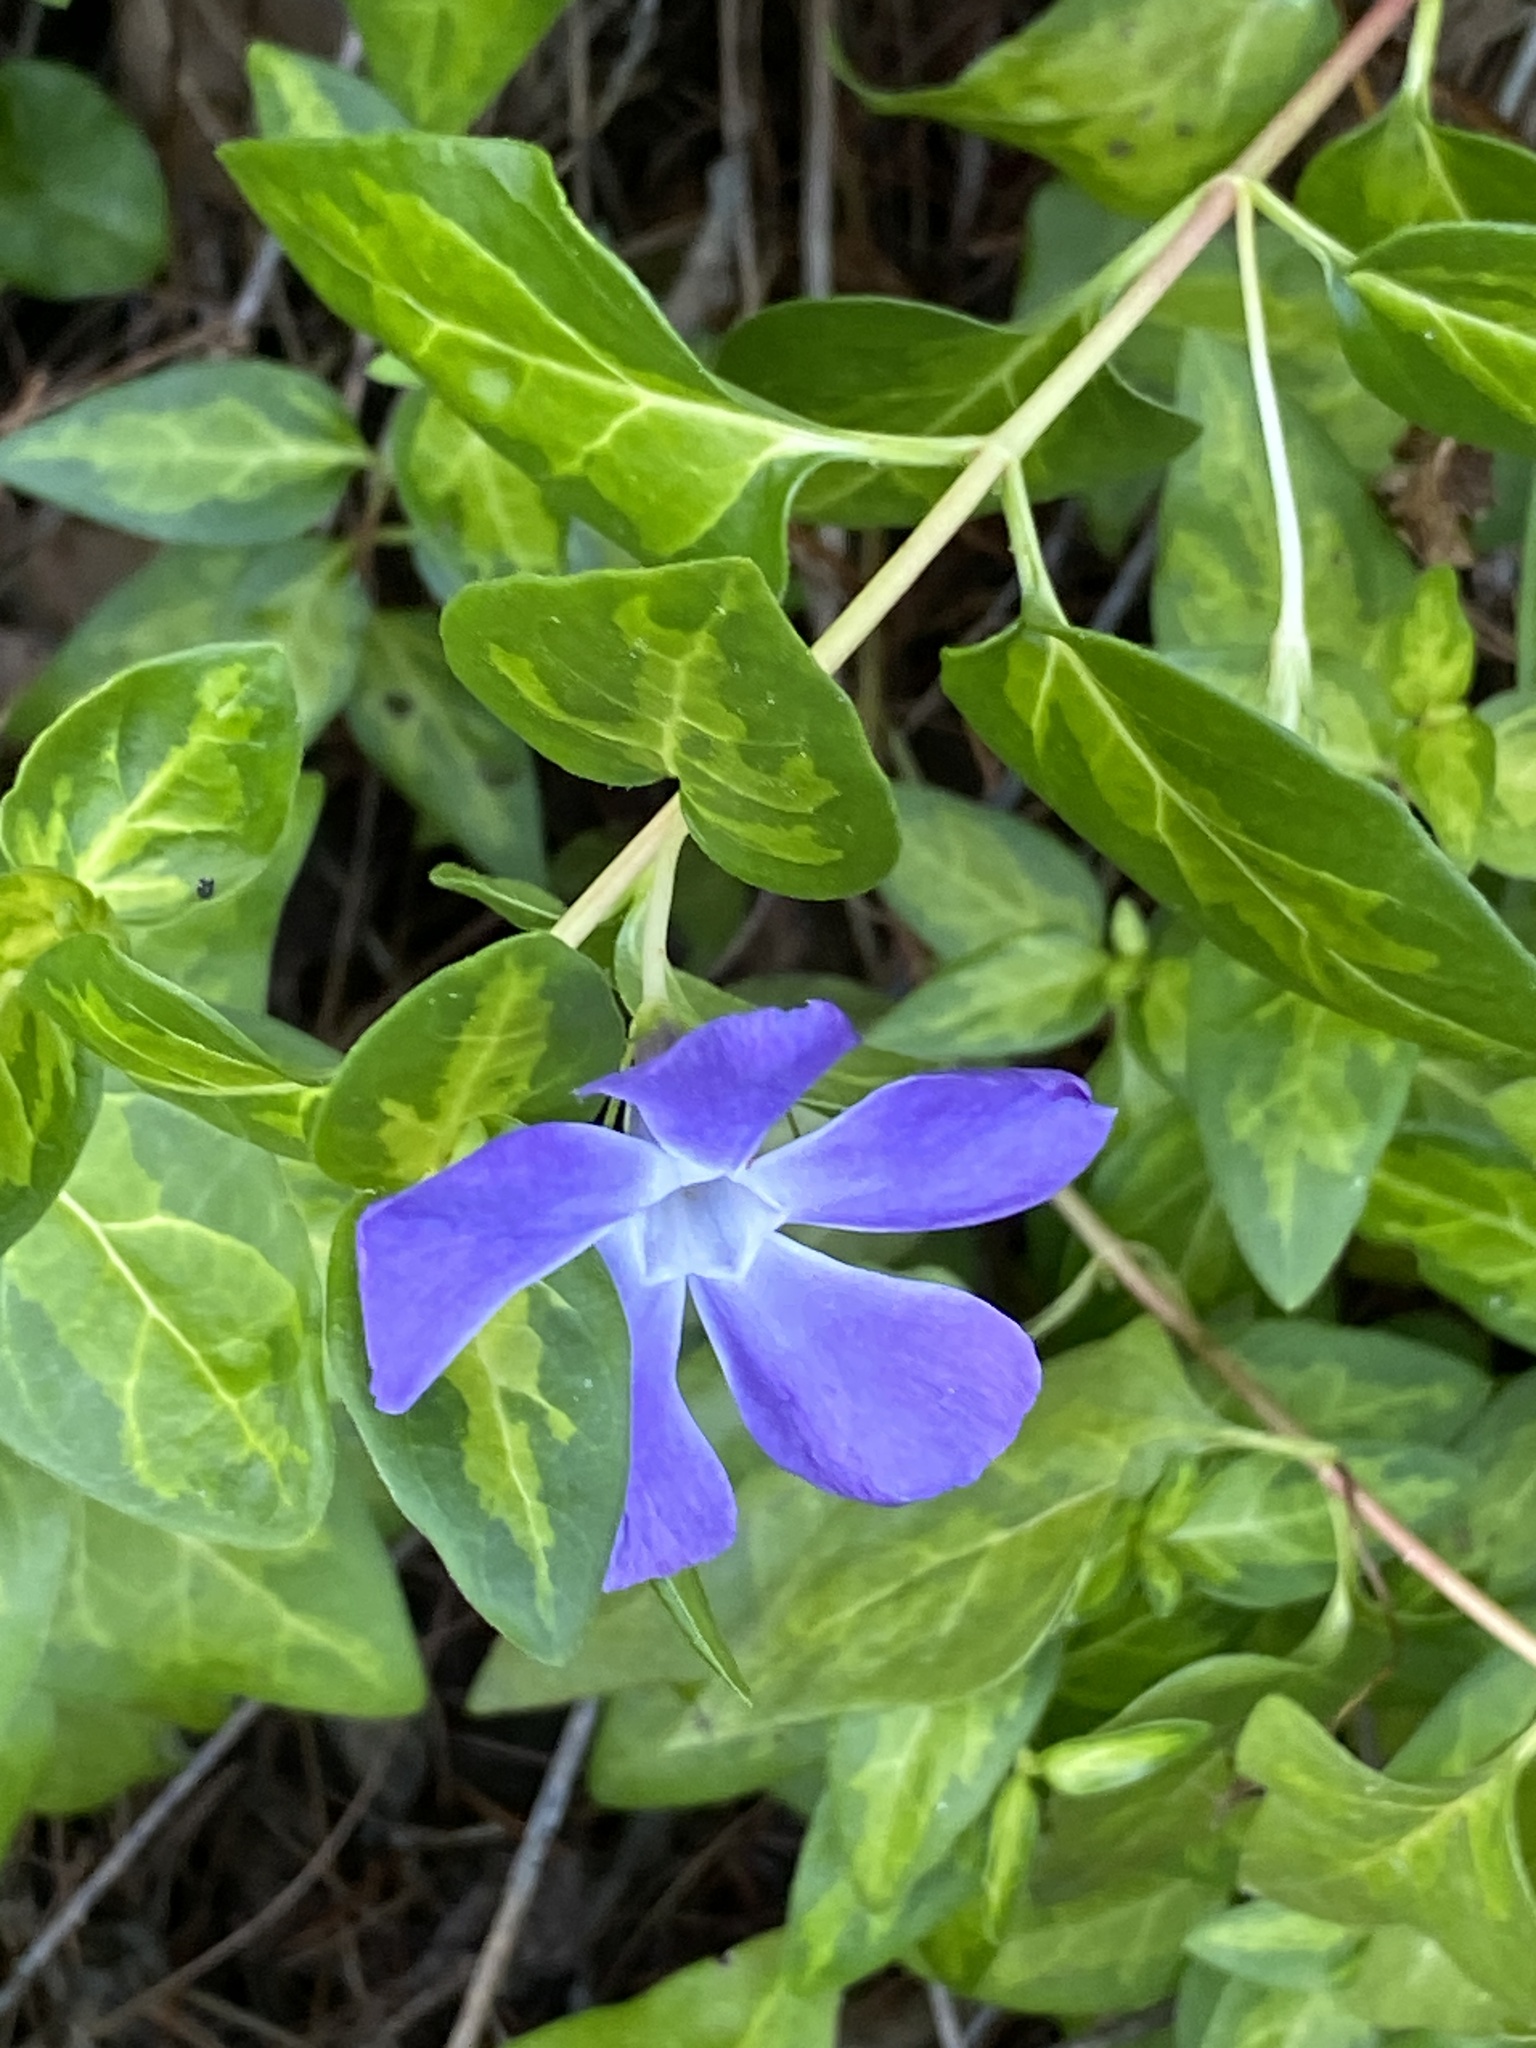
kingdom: Plantae
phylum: Tracheophyta
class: Magnoliopsida
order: Gentianales
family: Apocynaceae
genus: Vinca
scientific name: Vinca major
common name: Greater periwinkle
